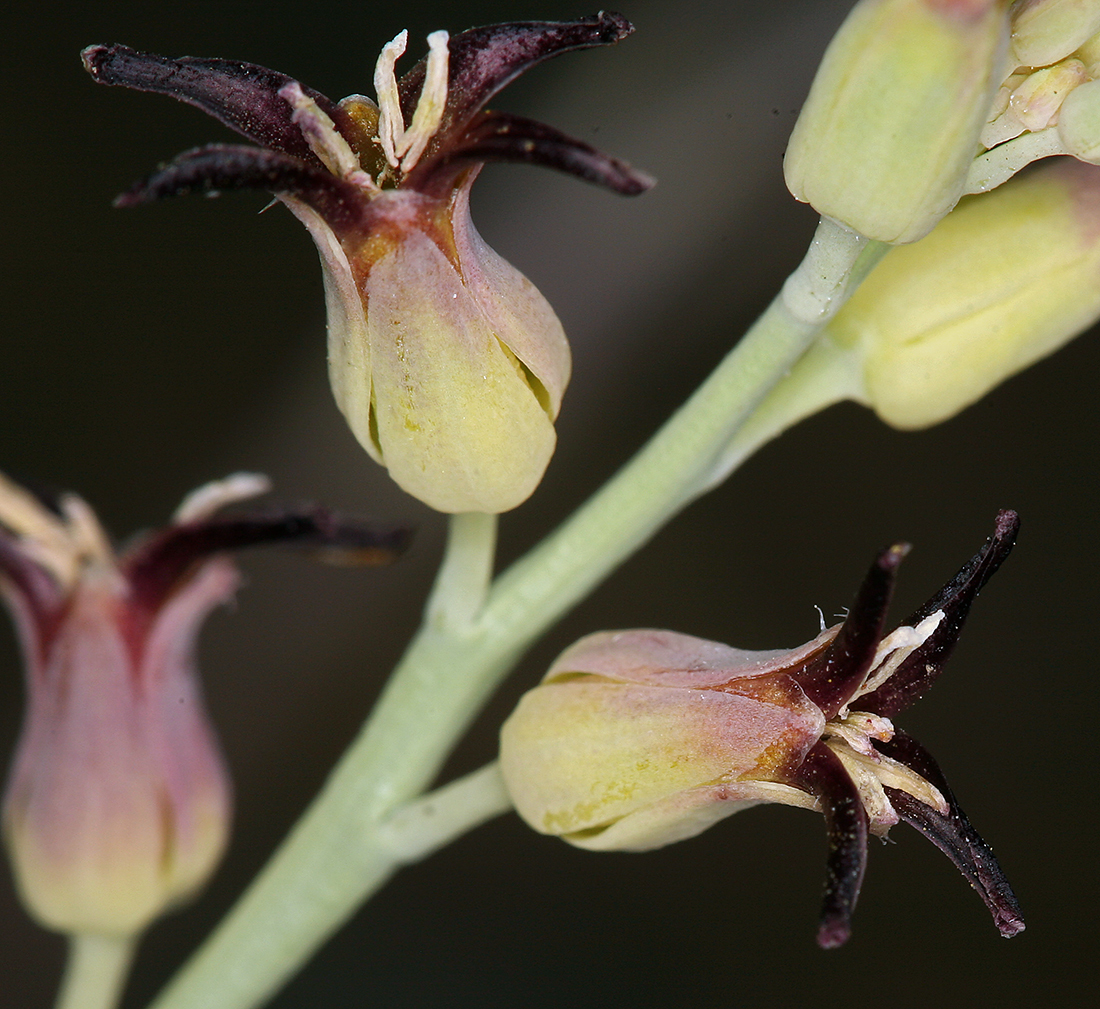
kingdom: Plantae
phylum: Tracheophyta
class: Magnoliopsida
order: Brassicales
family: Brassicaceae
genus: Streptanthus
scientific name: Streptanthus cordatus
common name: Heart-leaf jewel-flower
